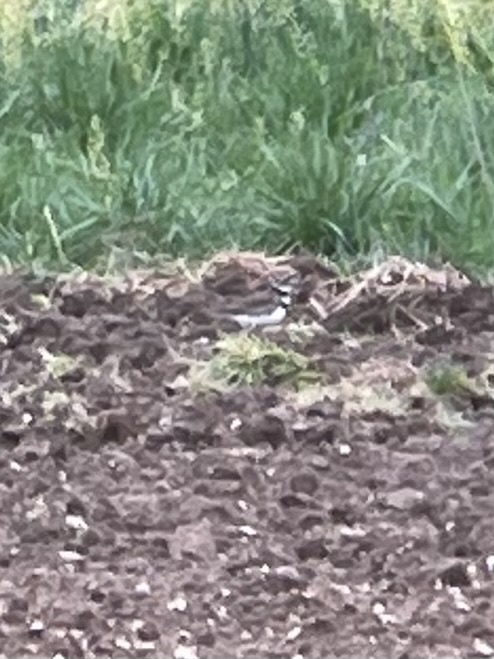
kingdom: Animalia
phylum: Chordata
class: Aves
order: Charadriiformes
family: Charadriidae
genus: Charadrius
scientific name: Charadrius vociferus
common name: Killdeer
